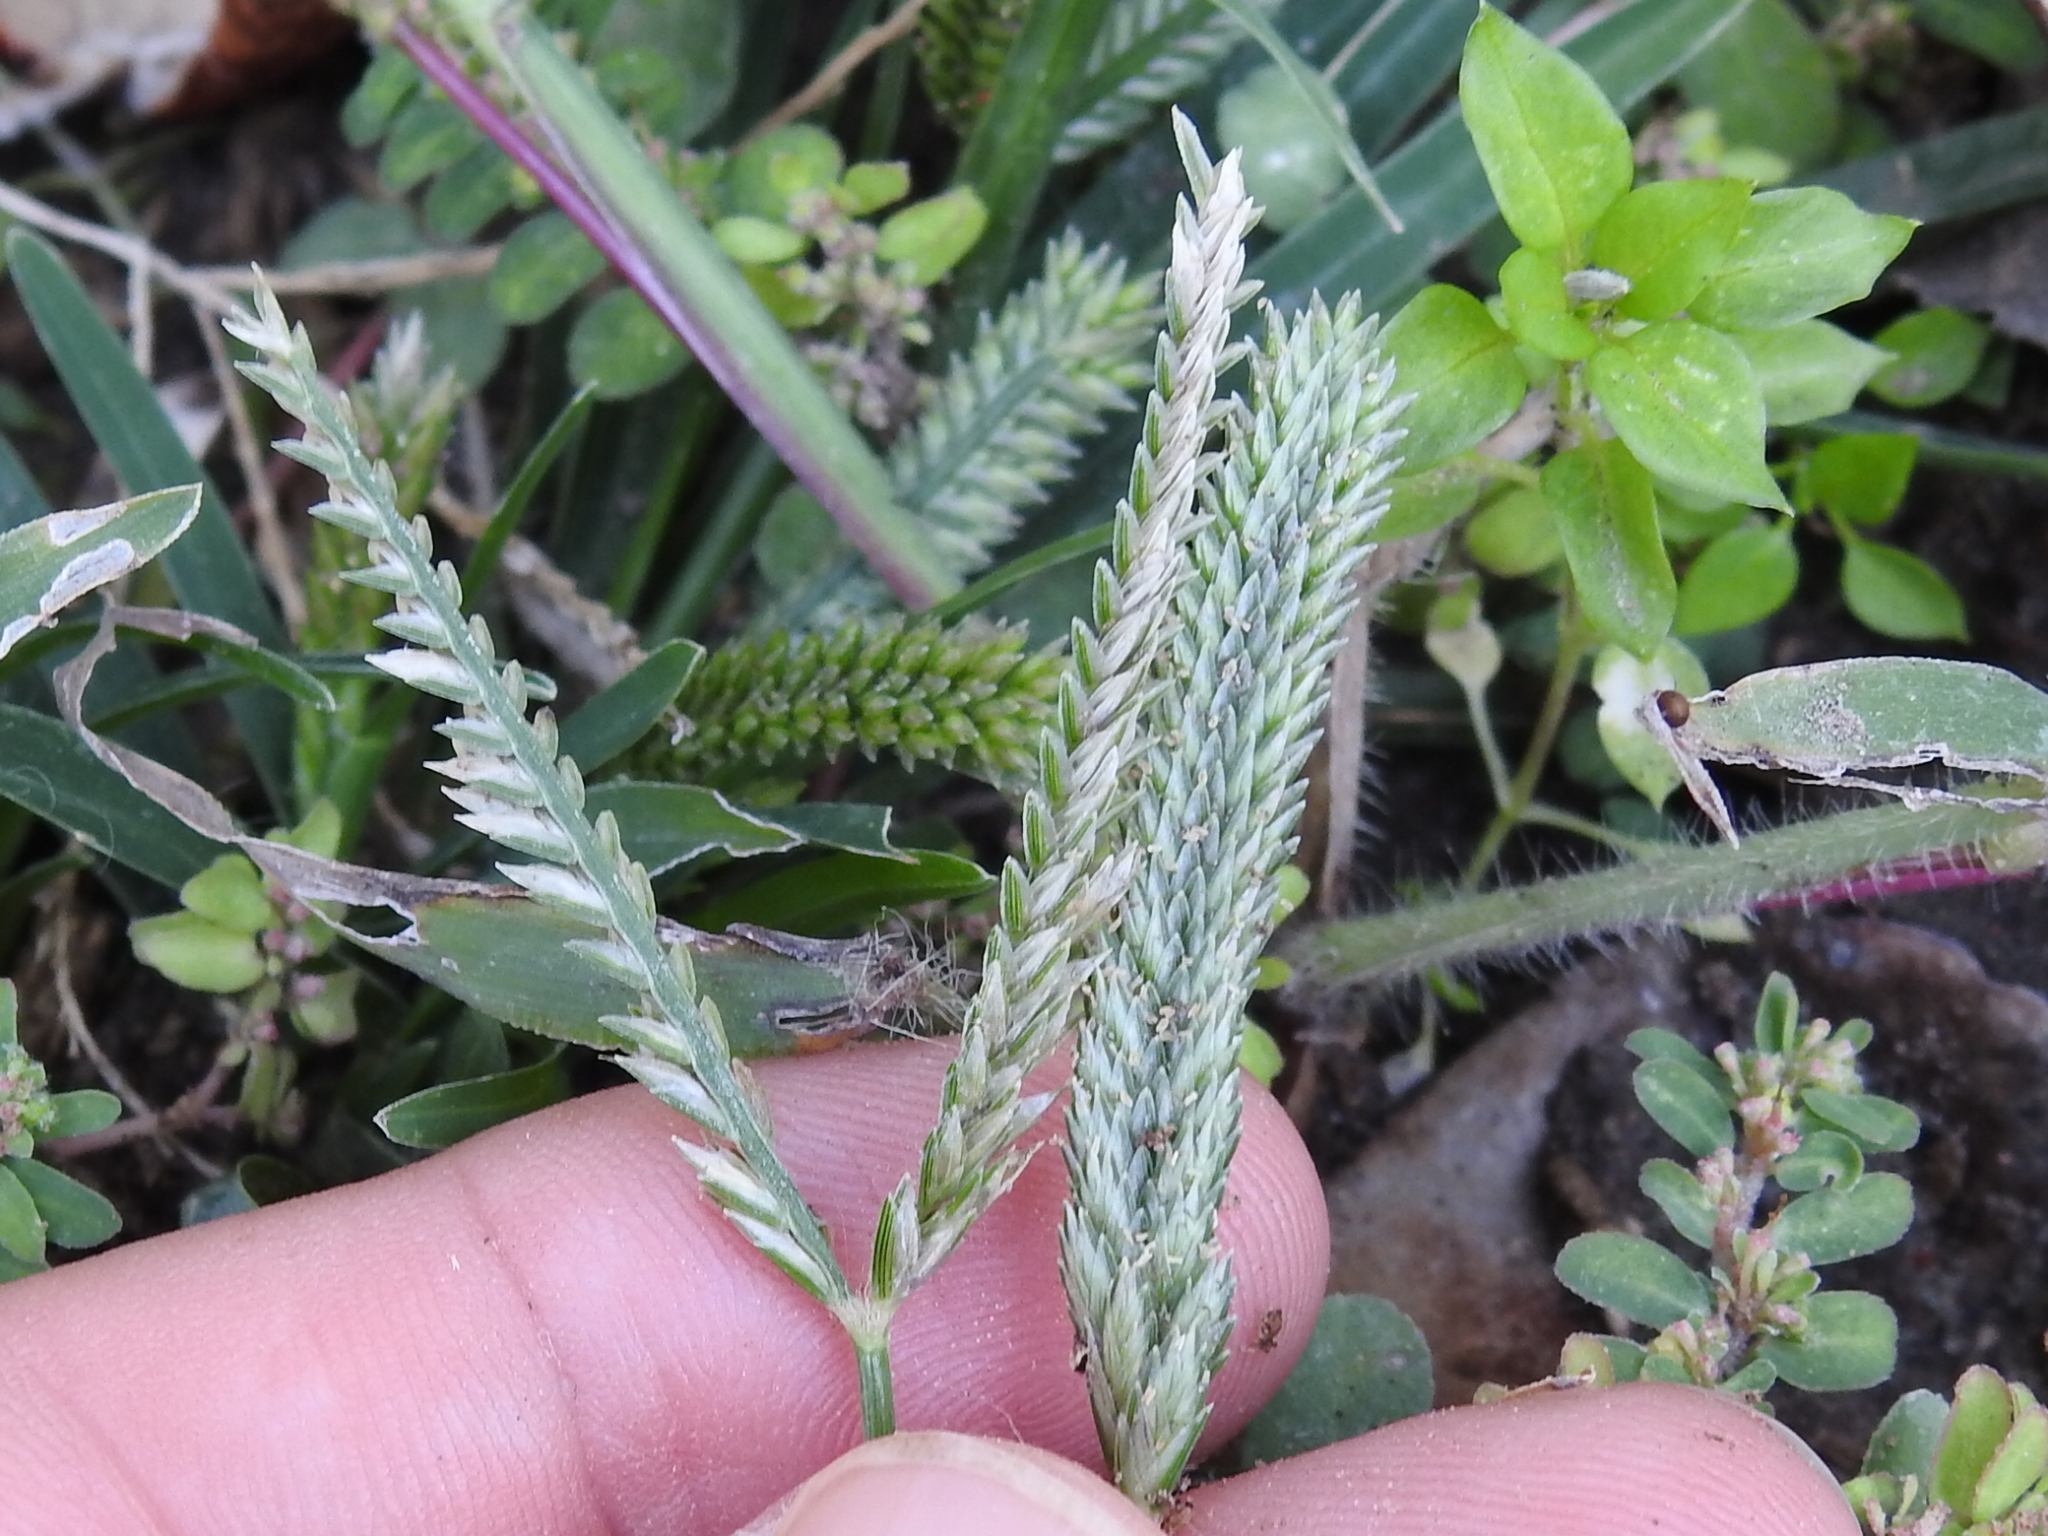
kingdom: Plantae
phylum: Tracheophyta
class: Liliopsida
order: Poales
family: Poaceae
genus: Eleusine
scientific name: Eleusine indica
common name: Yard-grass
